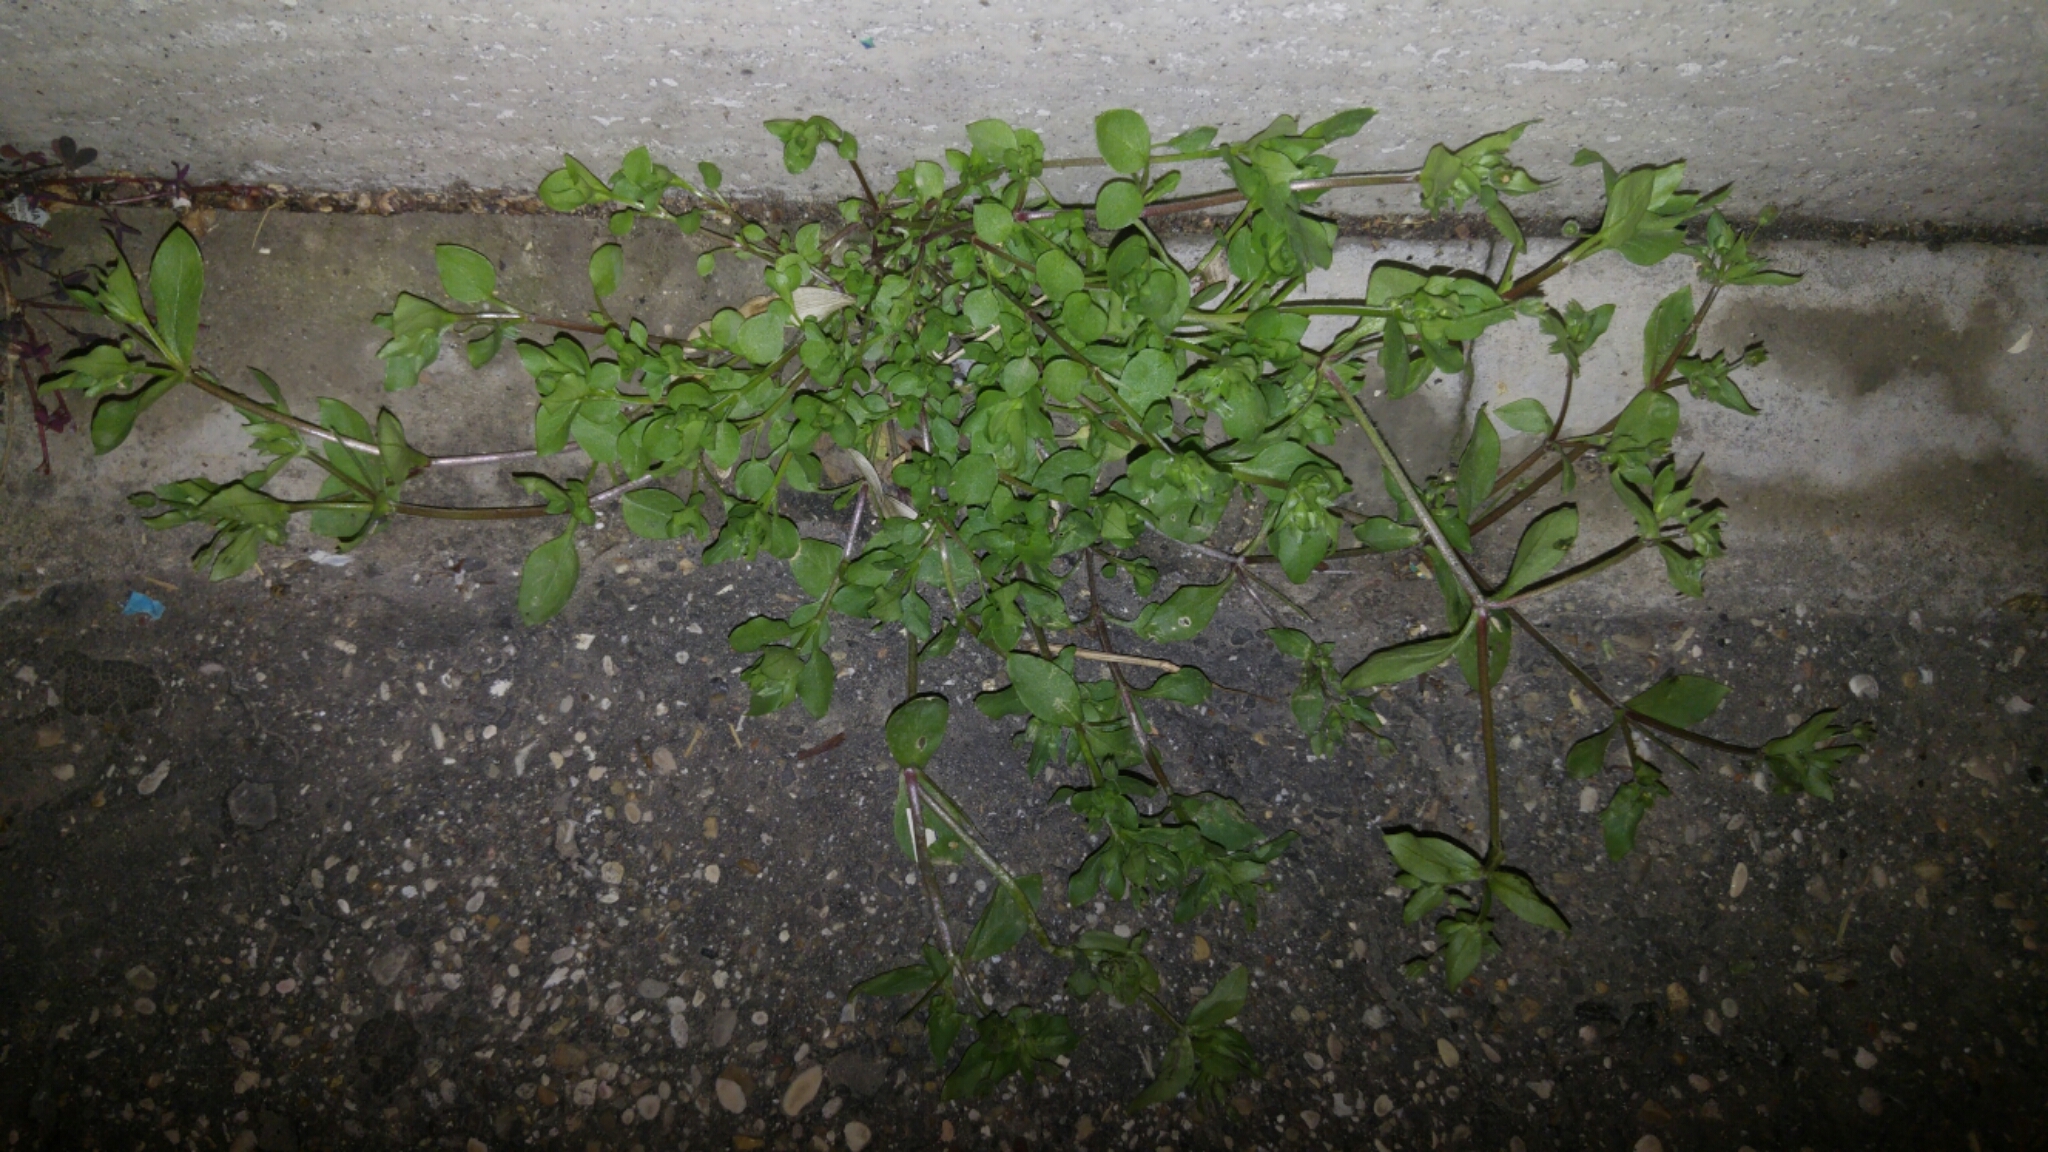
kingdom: Plantae
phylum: Tracheophyta
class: Magnoliopsida
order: Caryophyllales
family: Caryophyllaceae
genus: Stellaria
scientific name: Stellaria media
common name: Common chickweed
